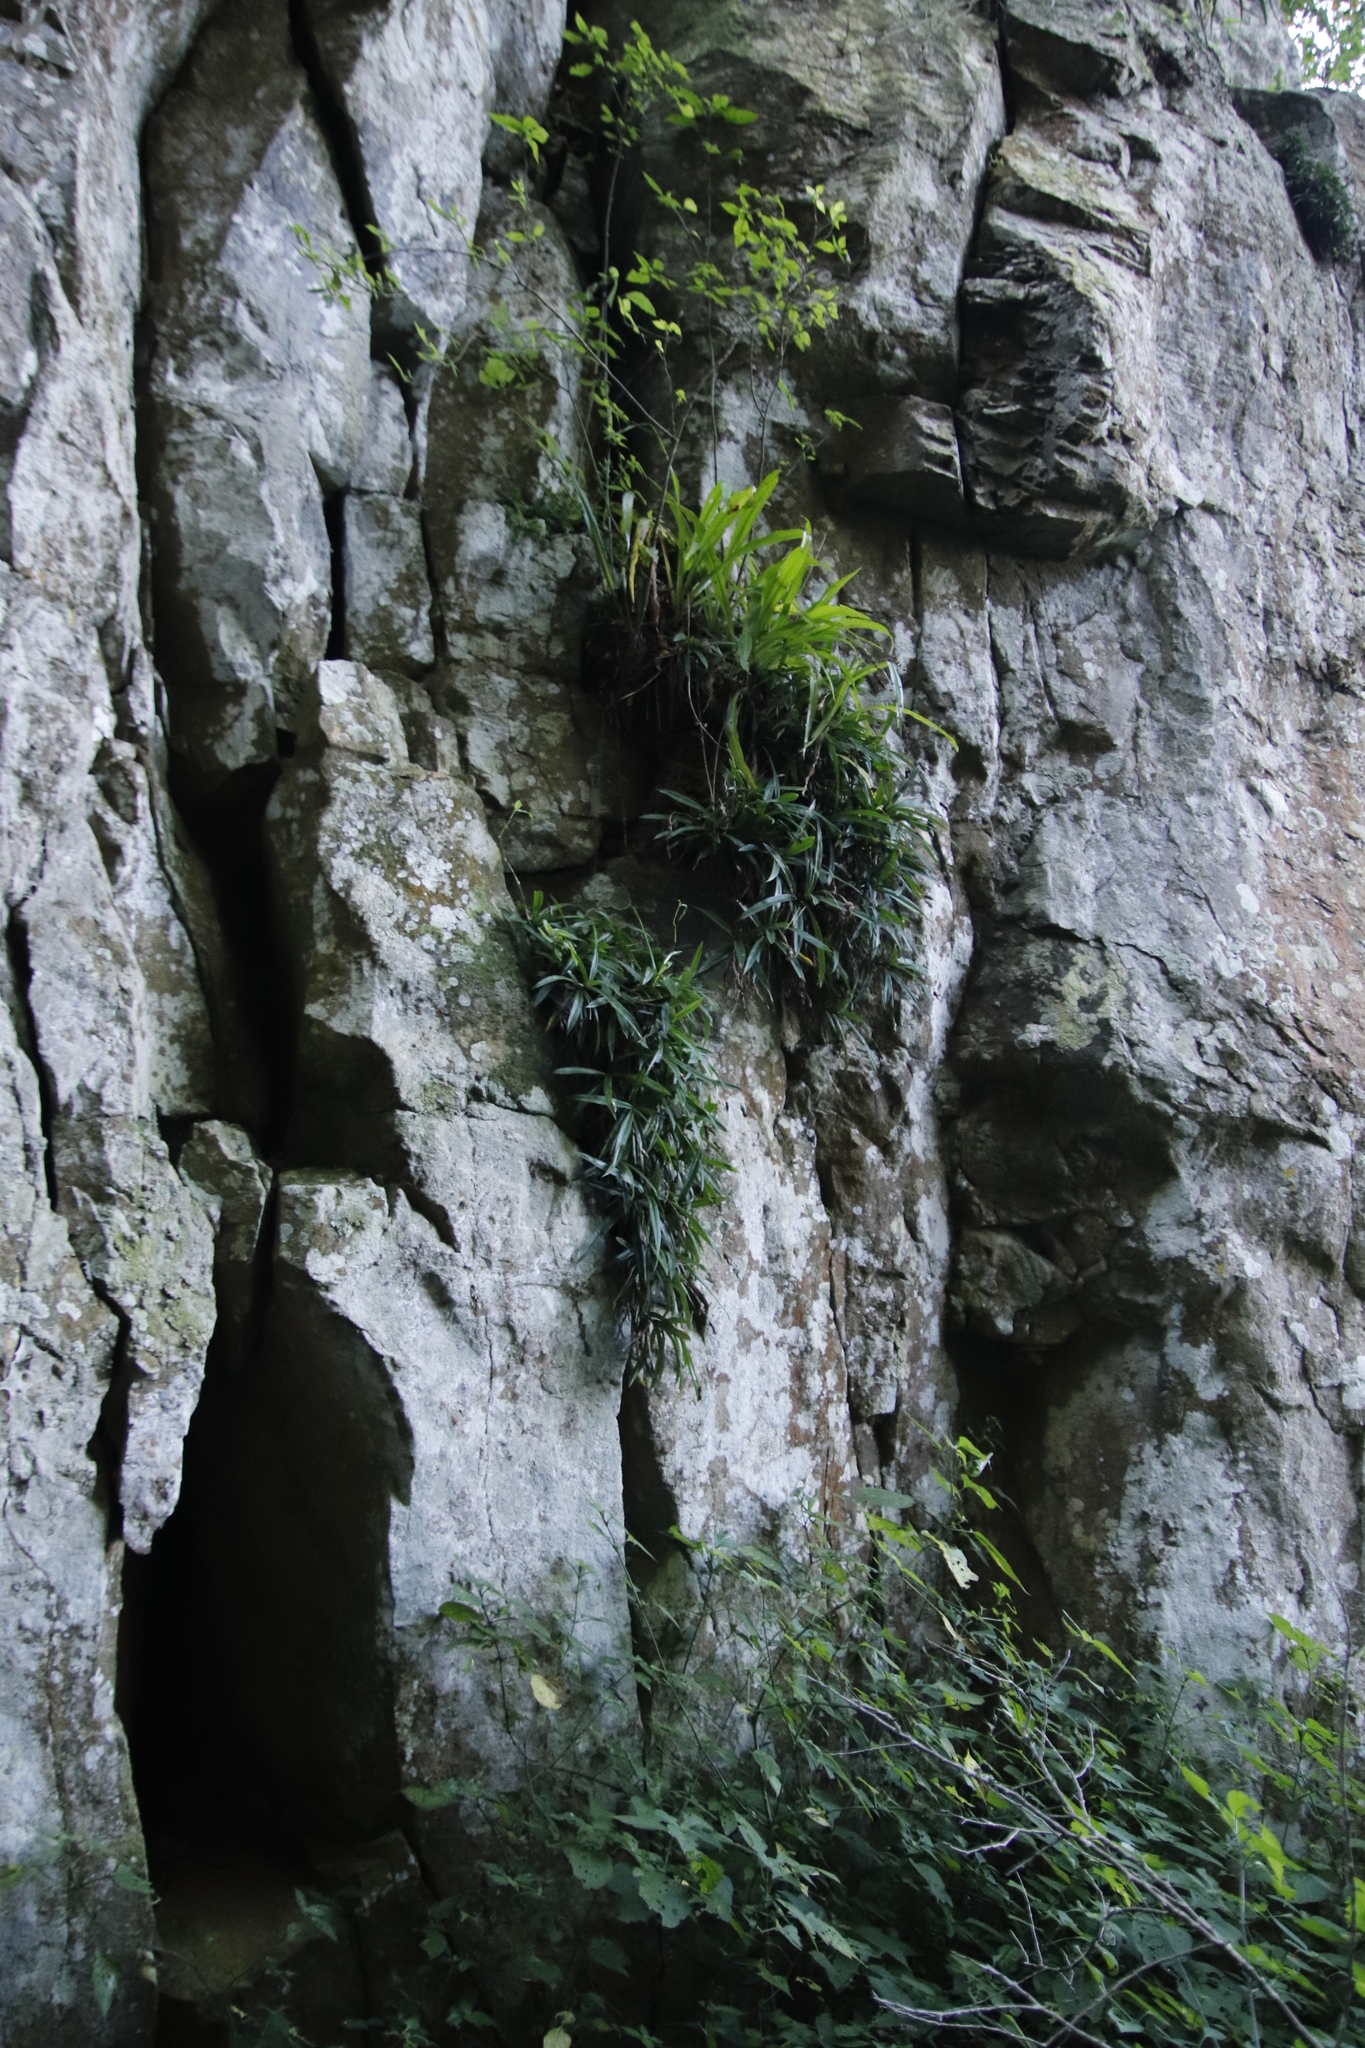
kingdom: Plantae
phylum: Tracheophyta
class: Liliopsida
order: Pandanales
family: Velloziaceae
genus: Xerophyta
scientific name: Xerophyta elegans
